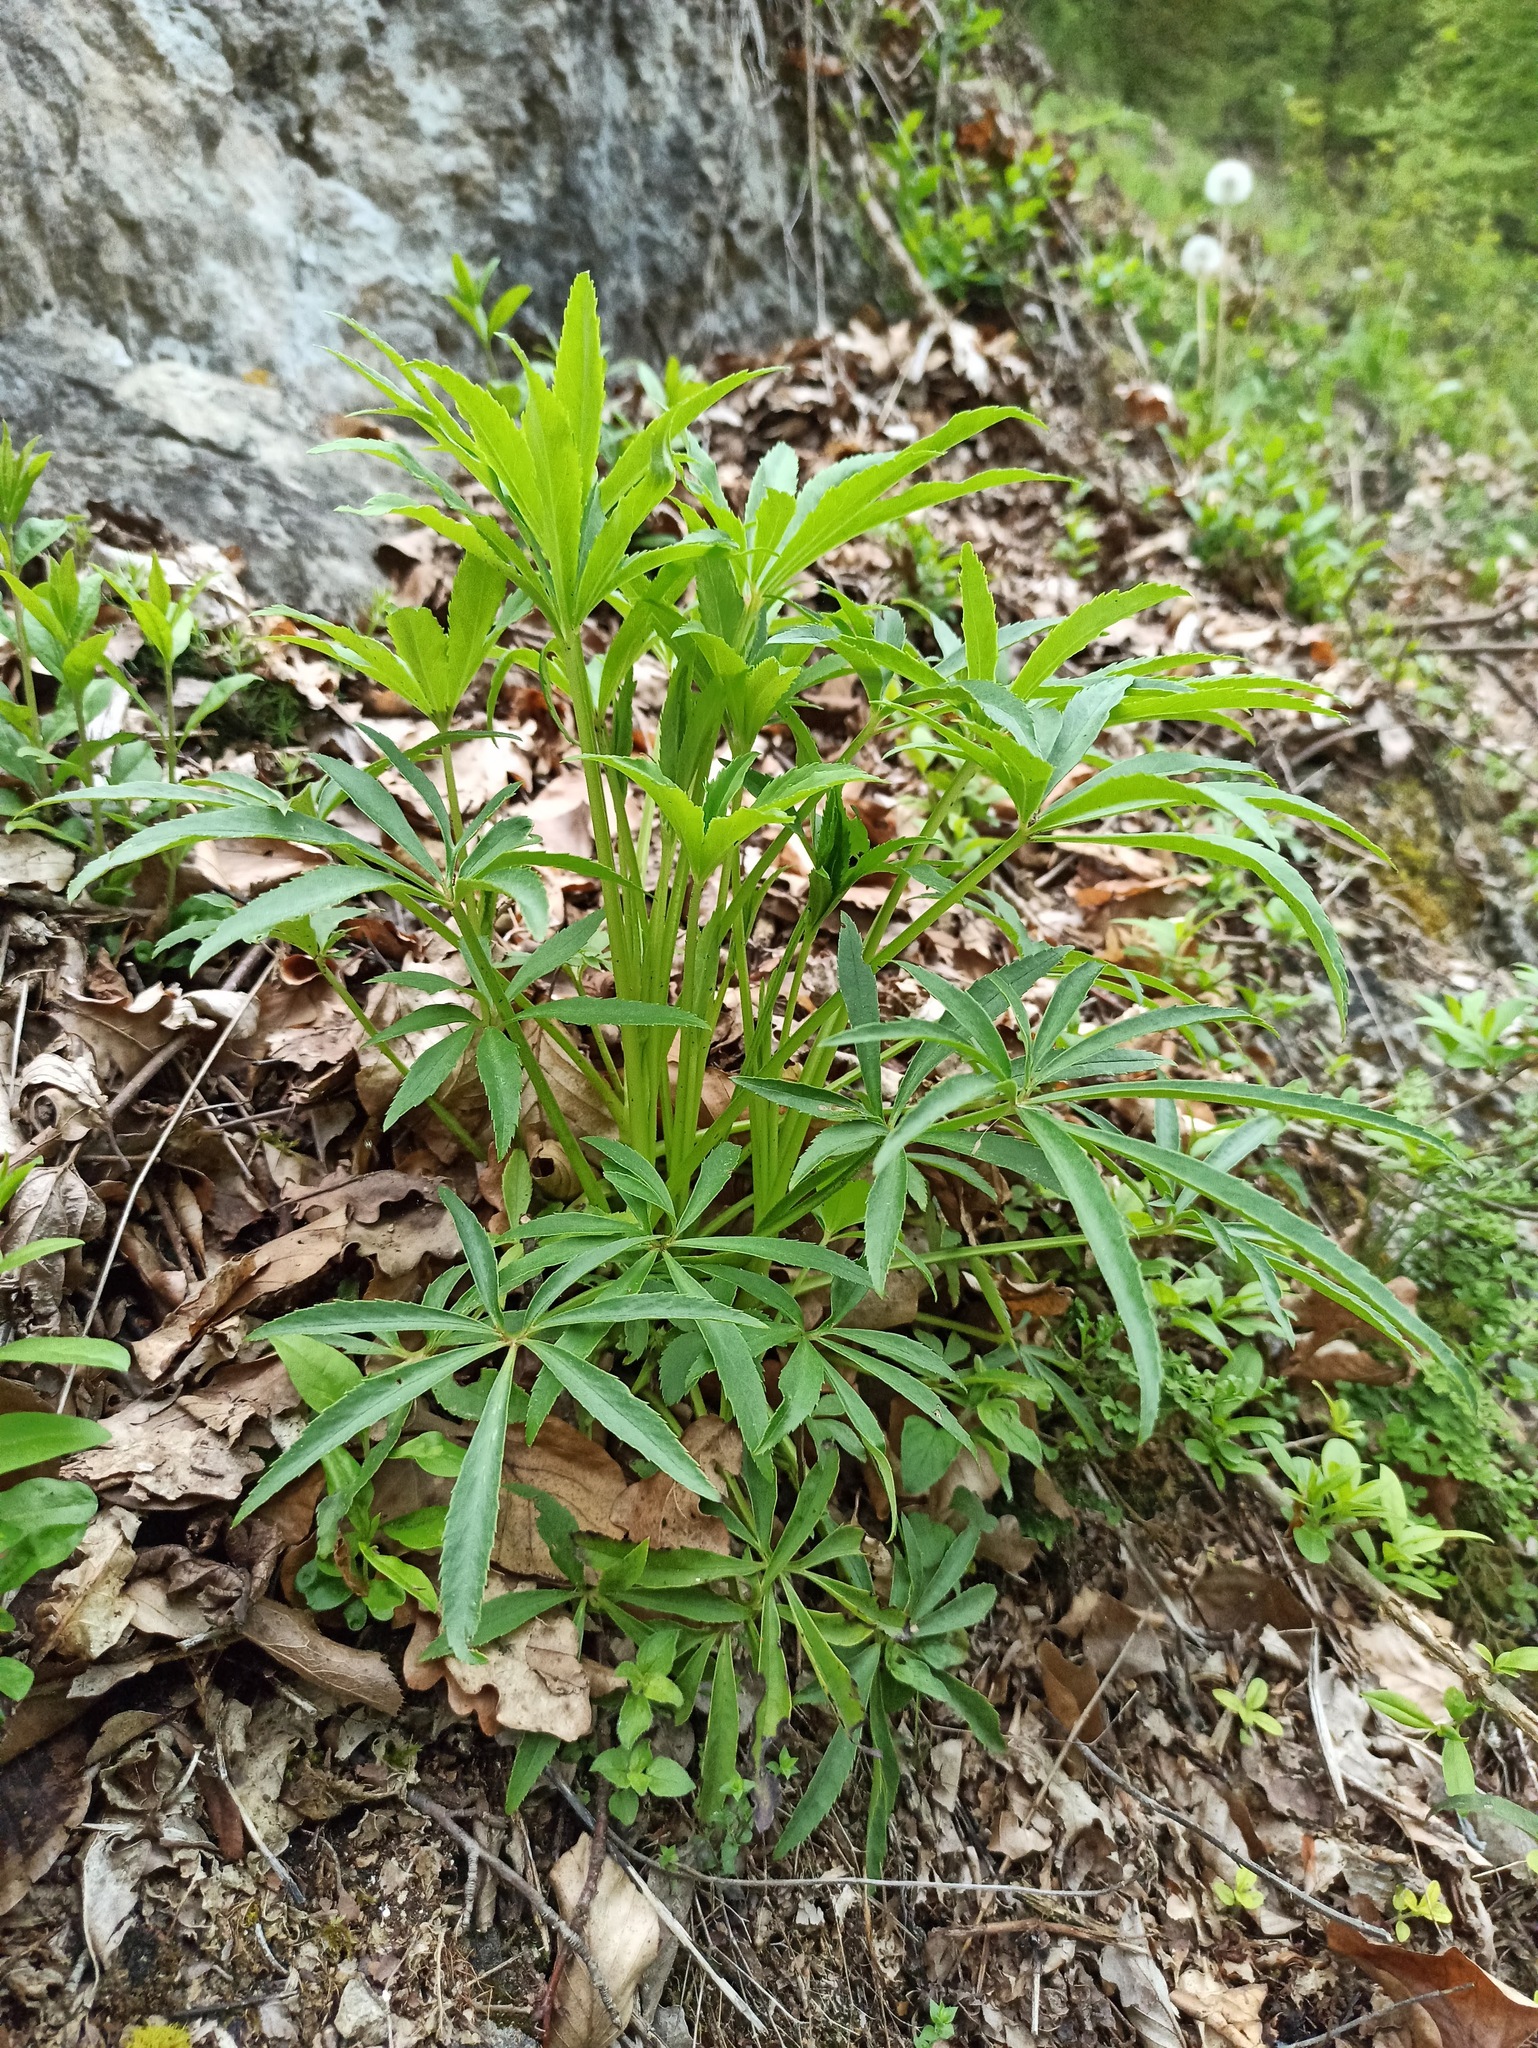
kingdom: Plantae
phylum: Tracheophyta
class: Magnoliopsida
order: Ranunculales
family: Ranunculaceae
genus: Helleborus
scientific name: Helleborus foetidus
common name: Stinking hellebore
